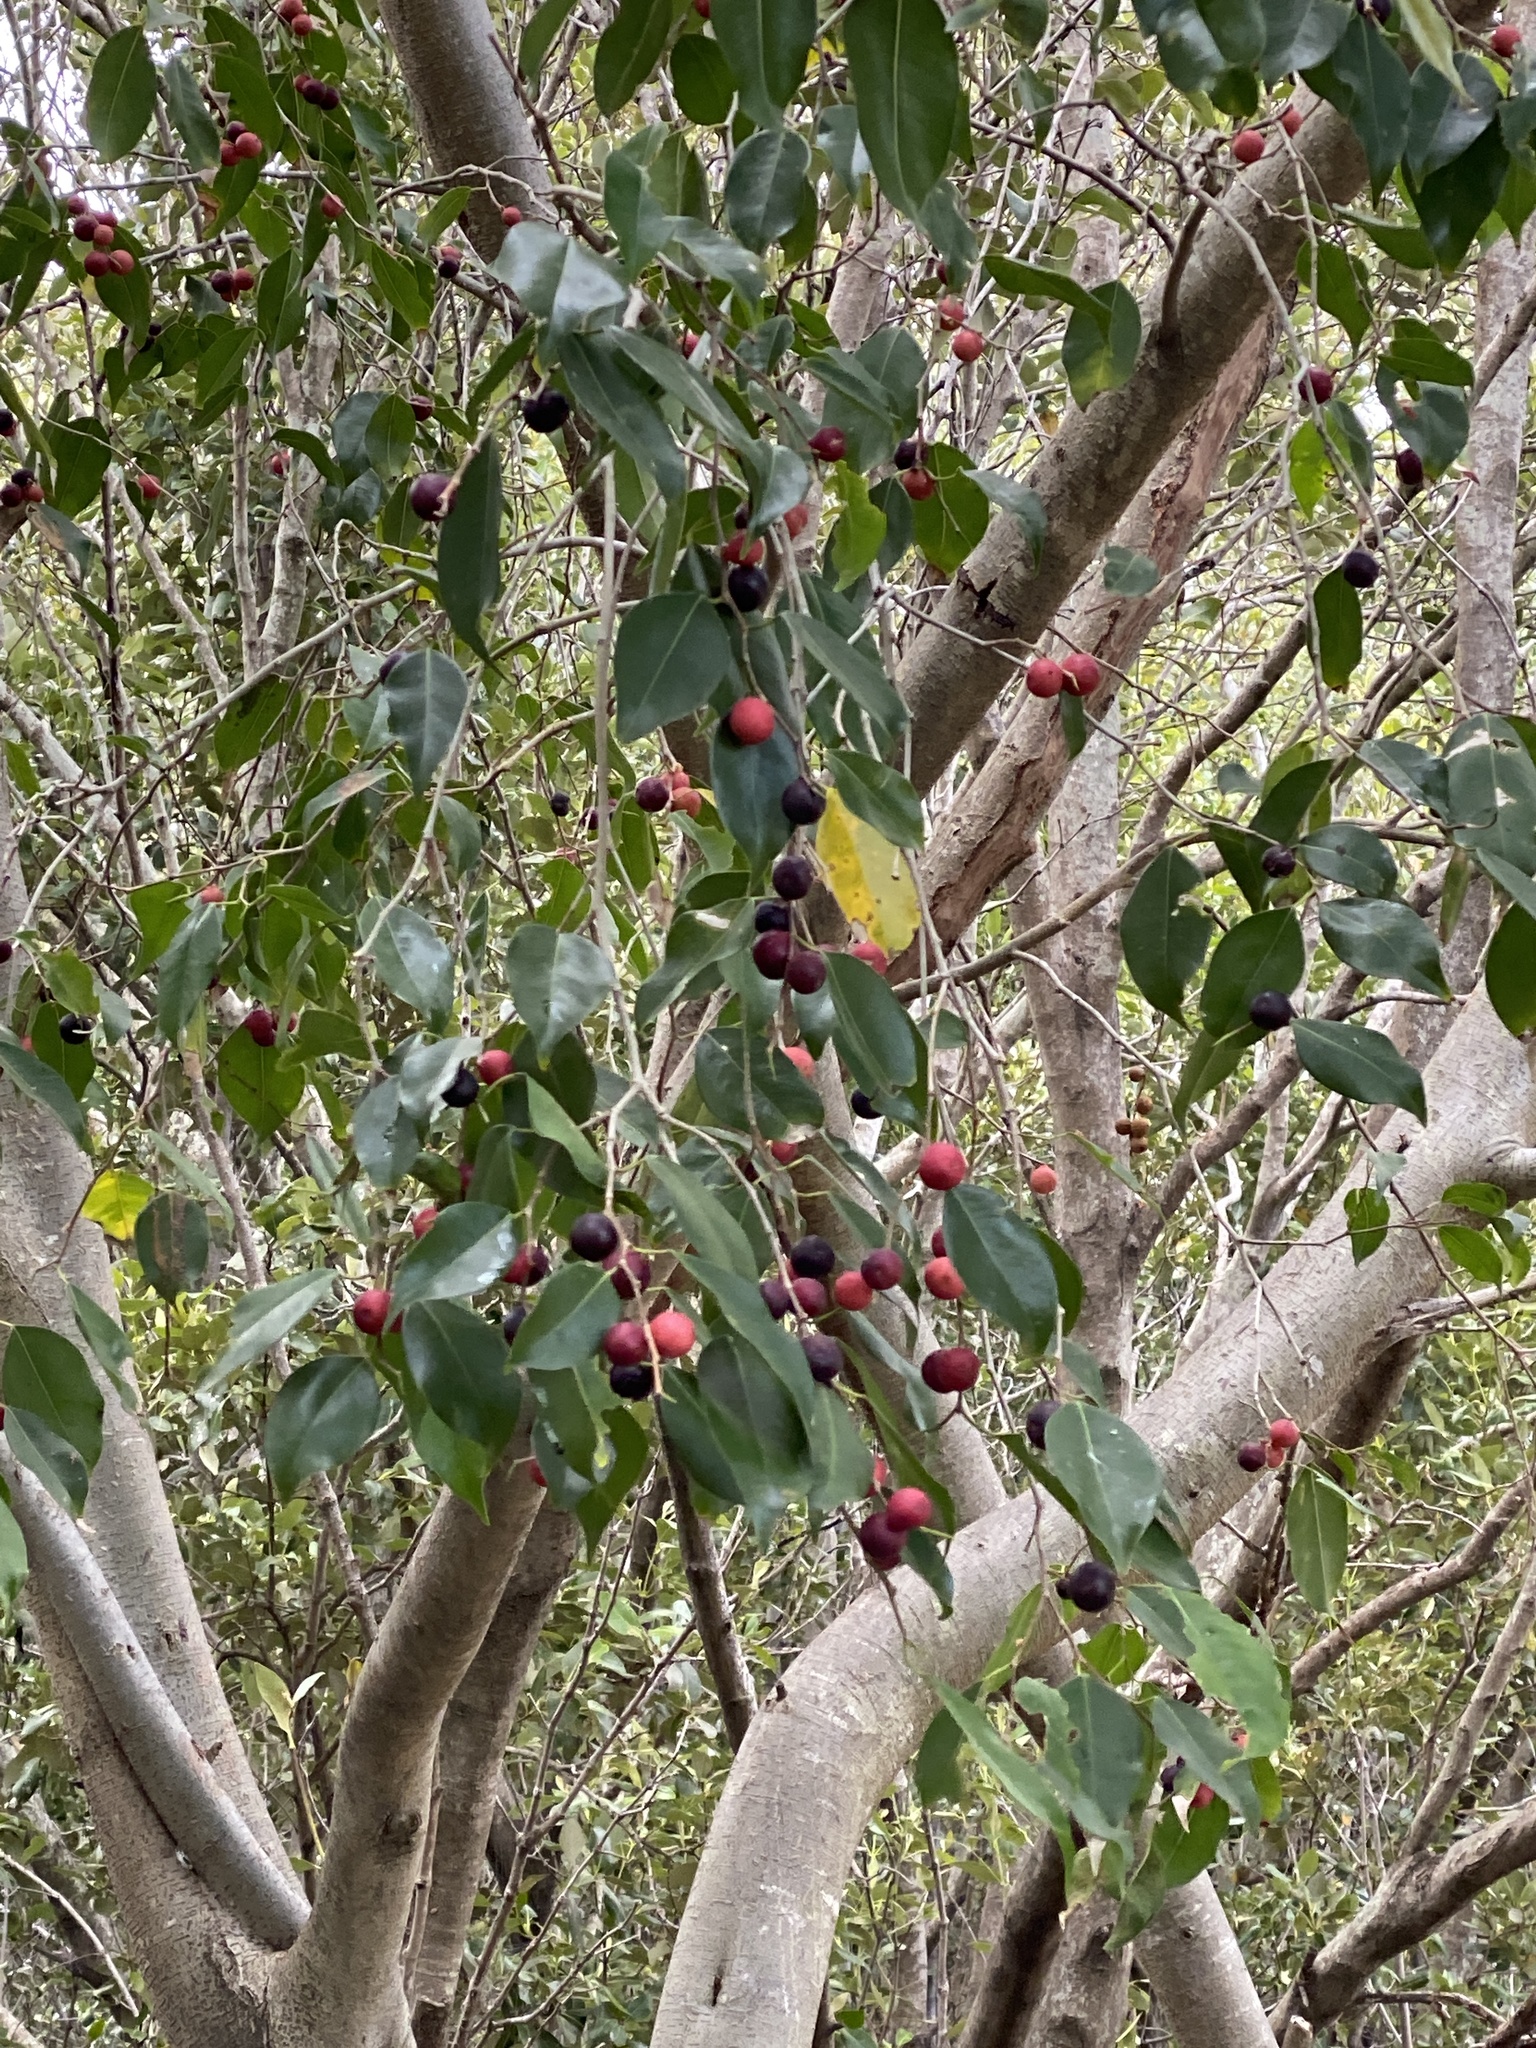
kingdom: Plantae
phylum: Tracheophyta
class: Magnoliopsida
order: Rosales
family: Moraceae
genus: Ficus
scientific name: Ficus benjamina
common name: Weeping fig
